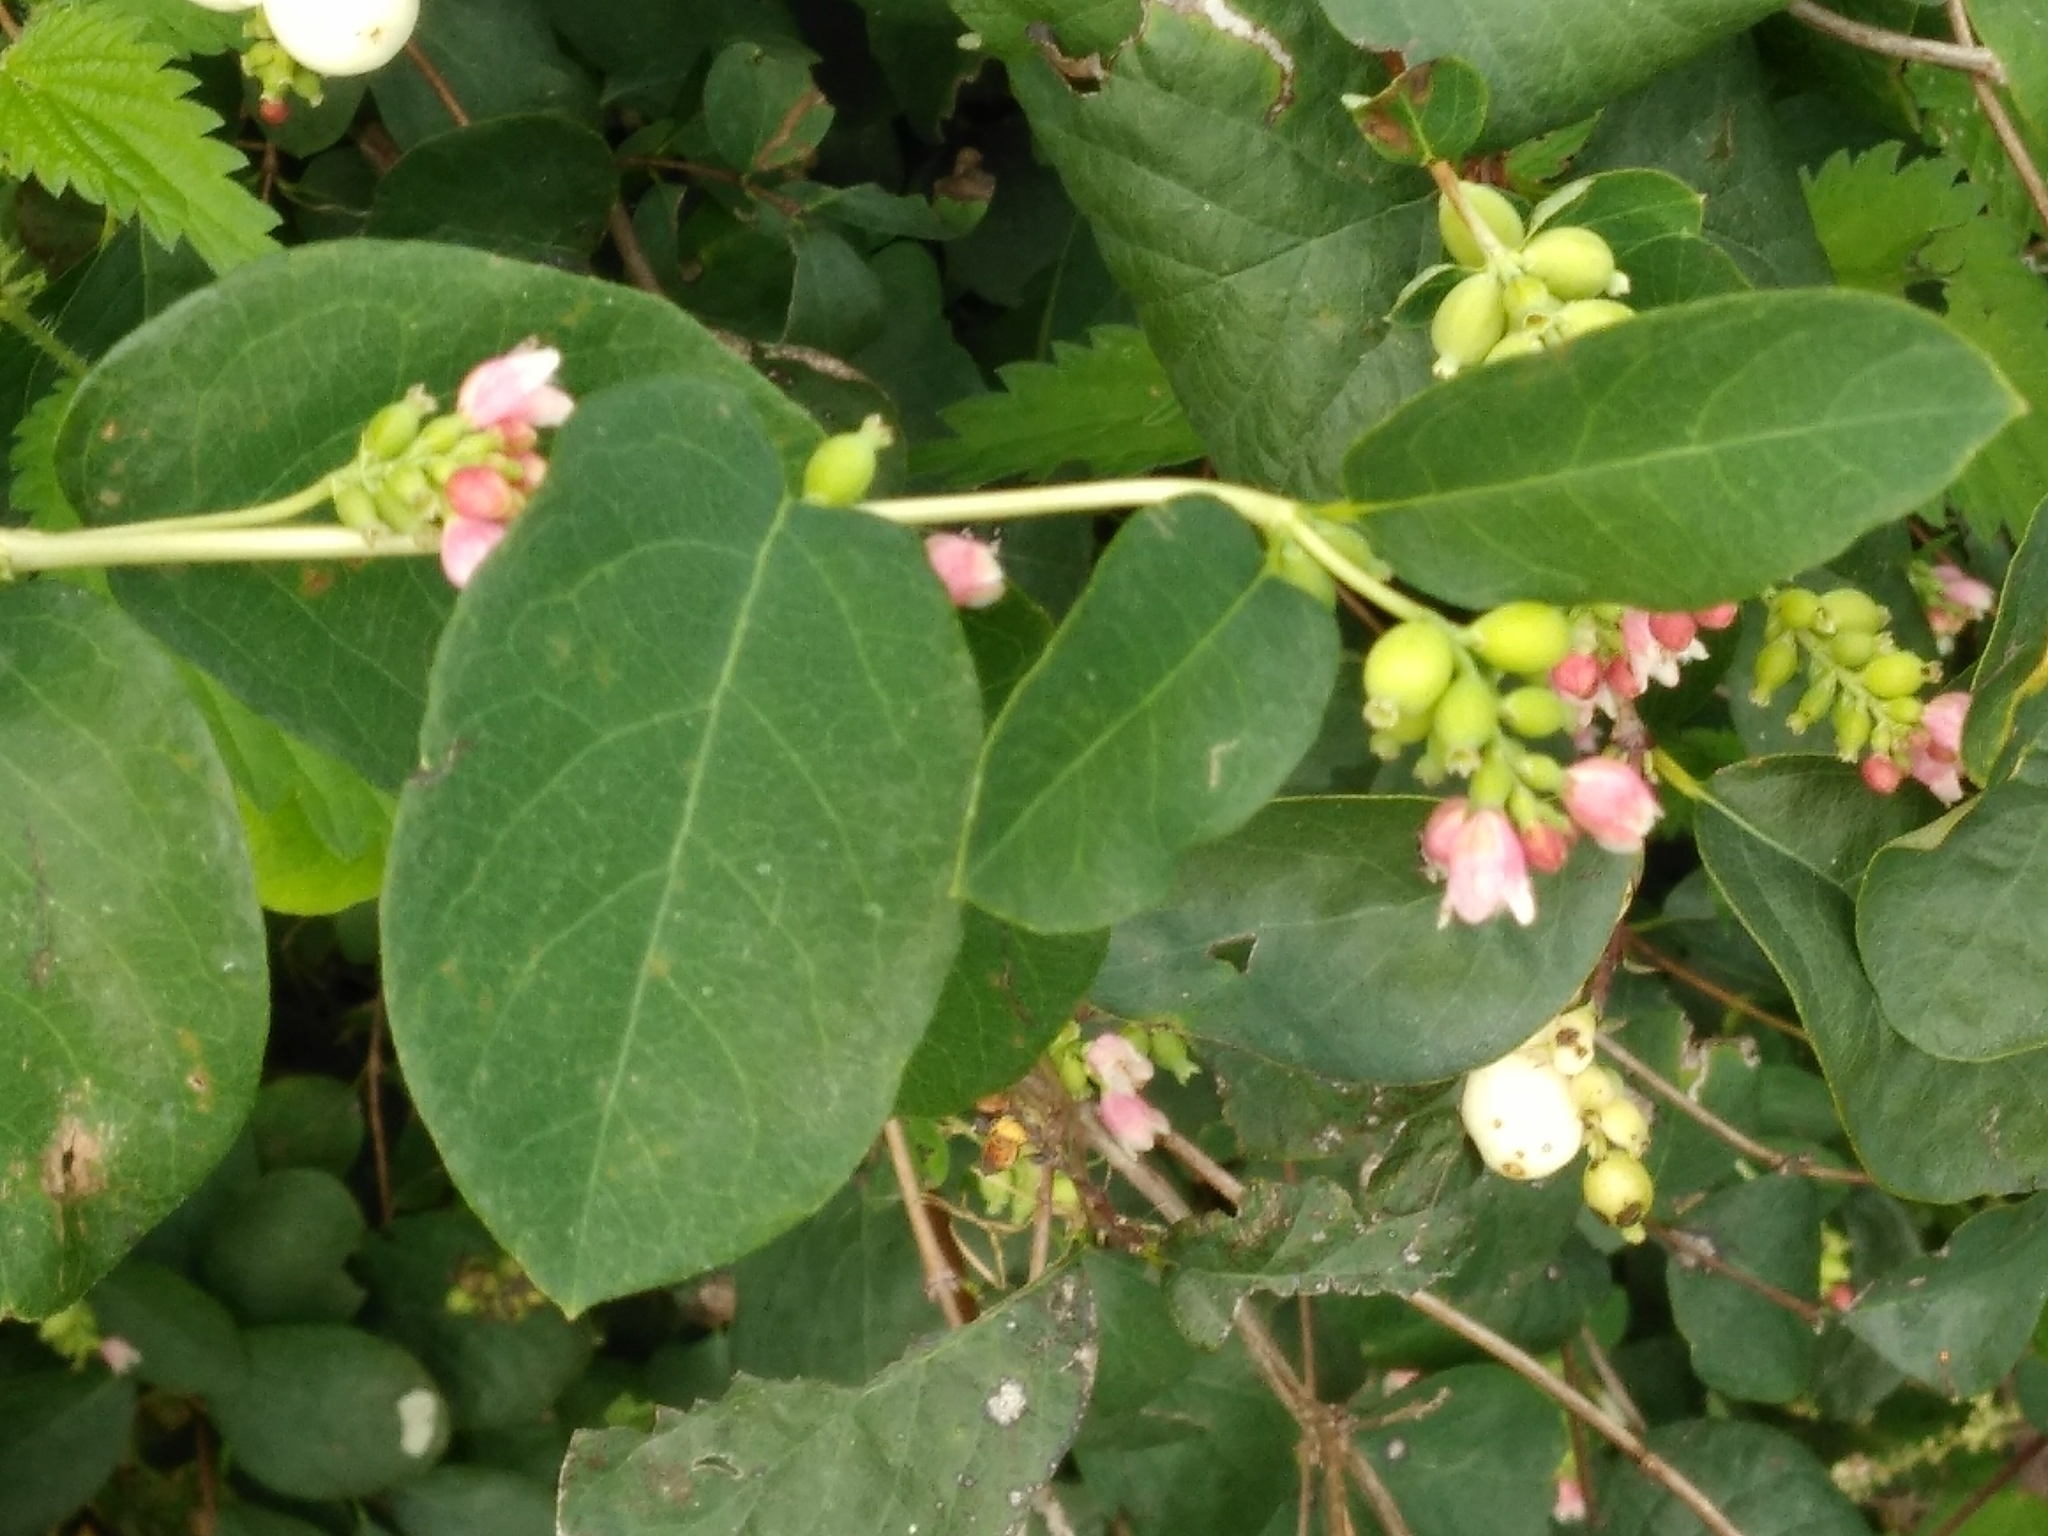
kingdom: Plantae
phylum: Tracheophyta
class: Magnoliopsida
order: Dipsacales
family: Caprifoliaceae
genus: Symphoricarpos
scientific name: Symphoricarpos albus
